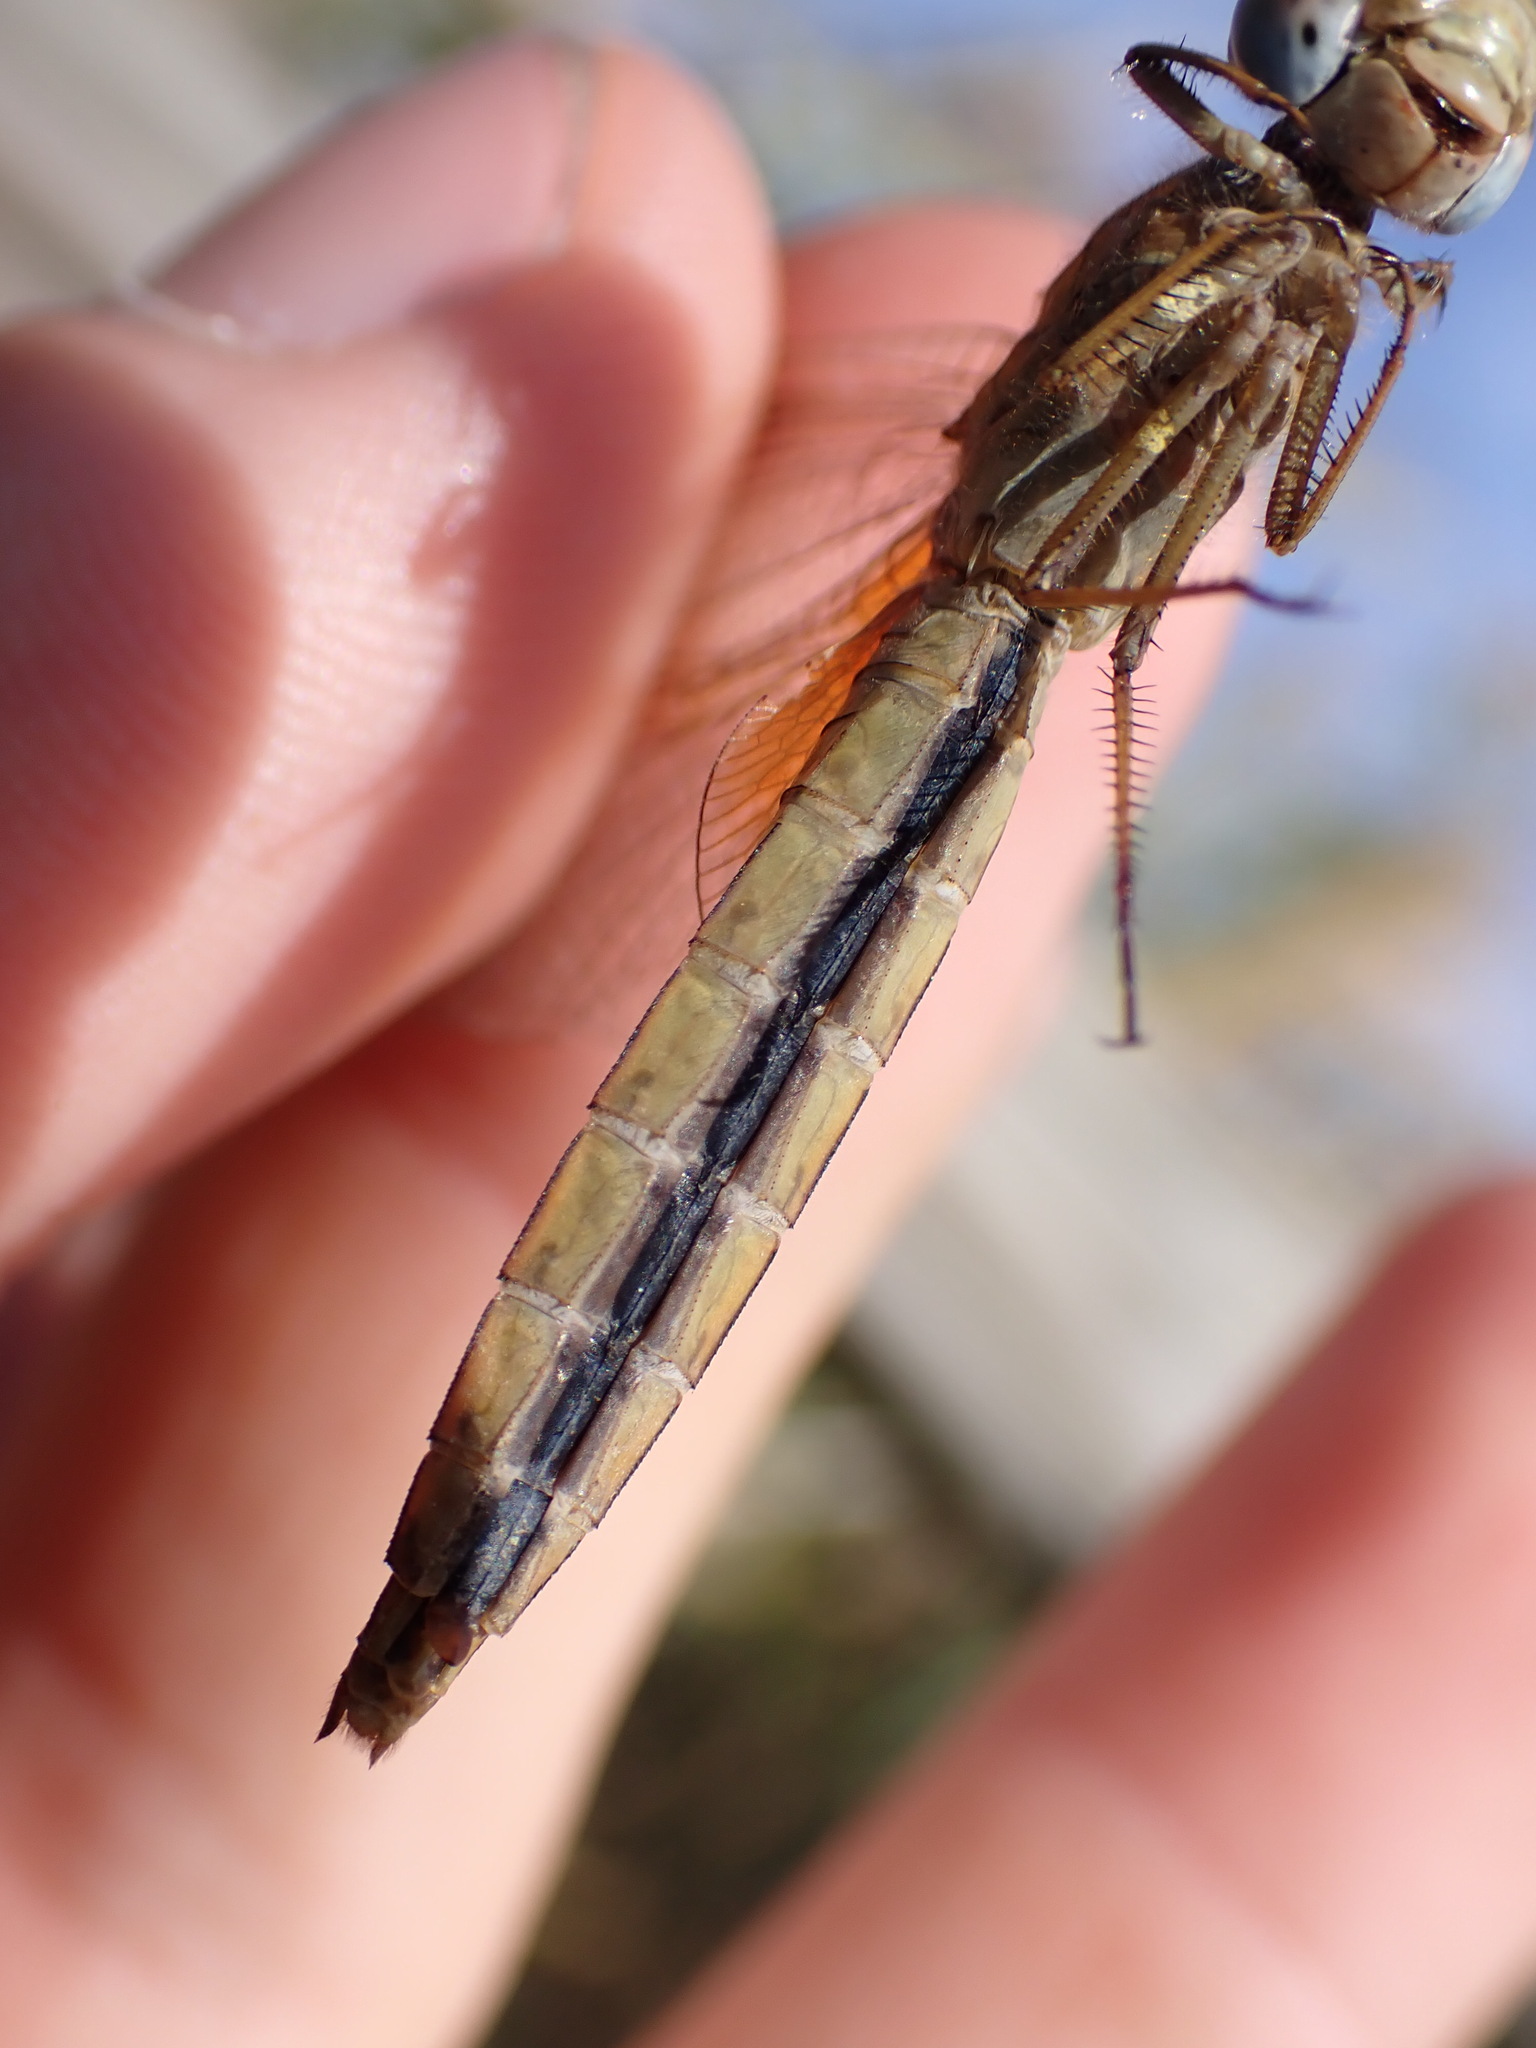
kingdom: Animalia
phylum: Arthropoda
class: Insecta
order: Odonata
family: Libellulidae
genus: Crocothemis
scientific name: Crocothemis erythraea
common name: Scarlet dragonfly
